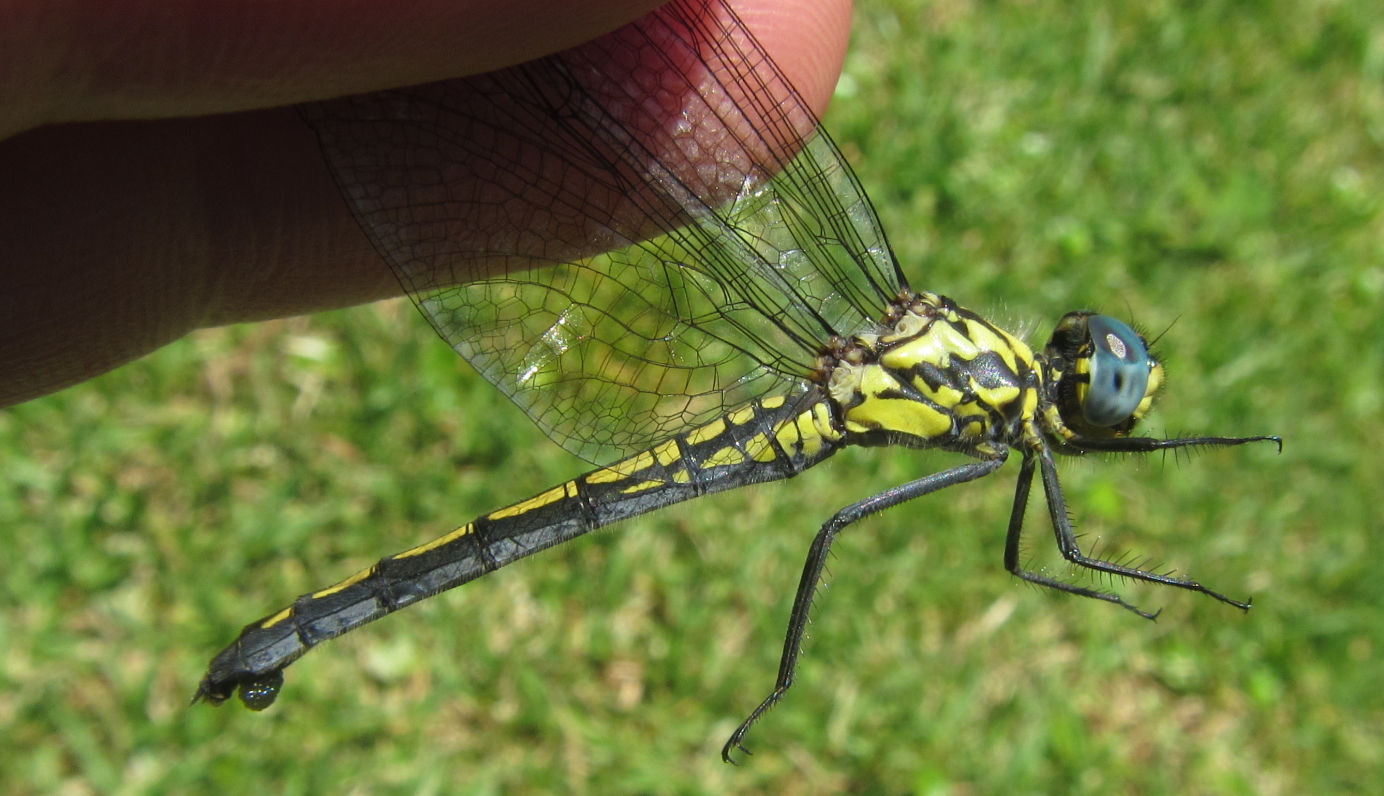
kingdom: Animalia
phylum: Arthropoda
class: Insecta
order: Odonata
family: Libellulidae
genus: Trithemis
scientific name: Trithemis stictica
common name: Jaunty dropwing
